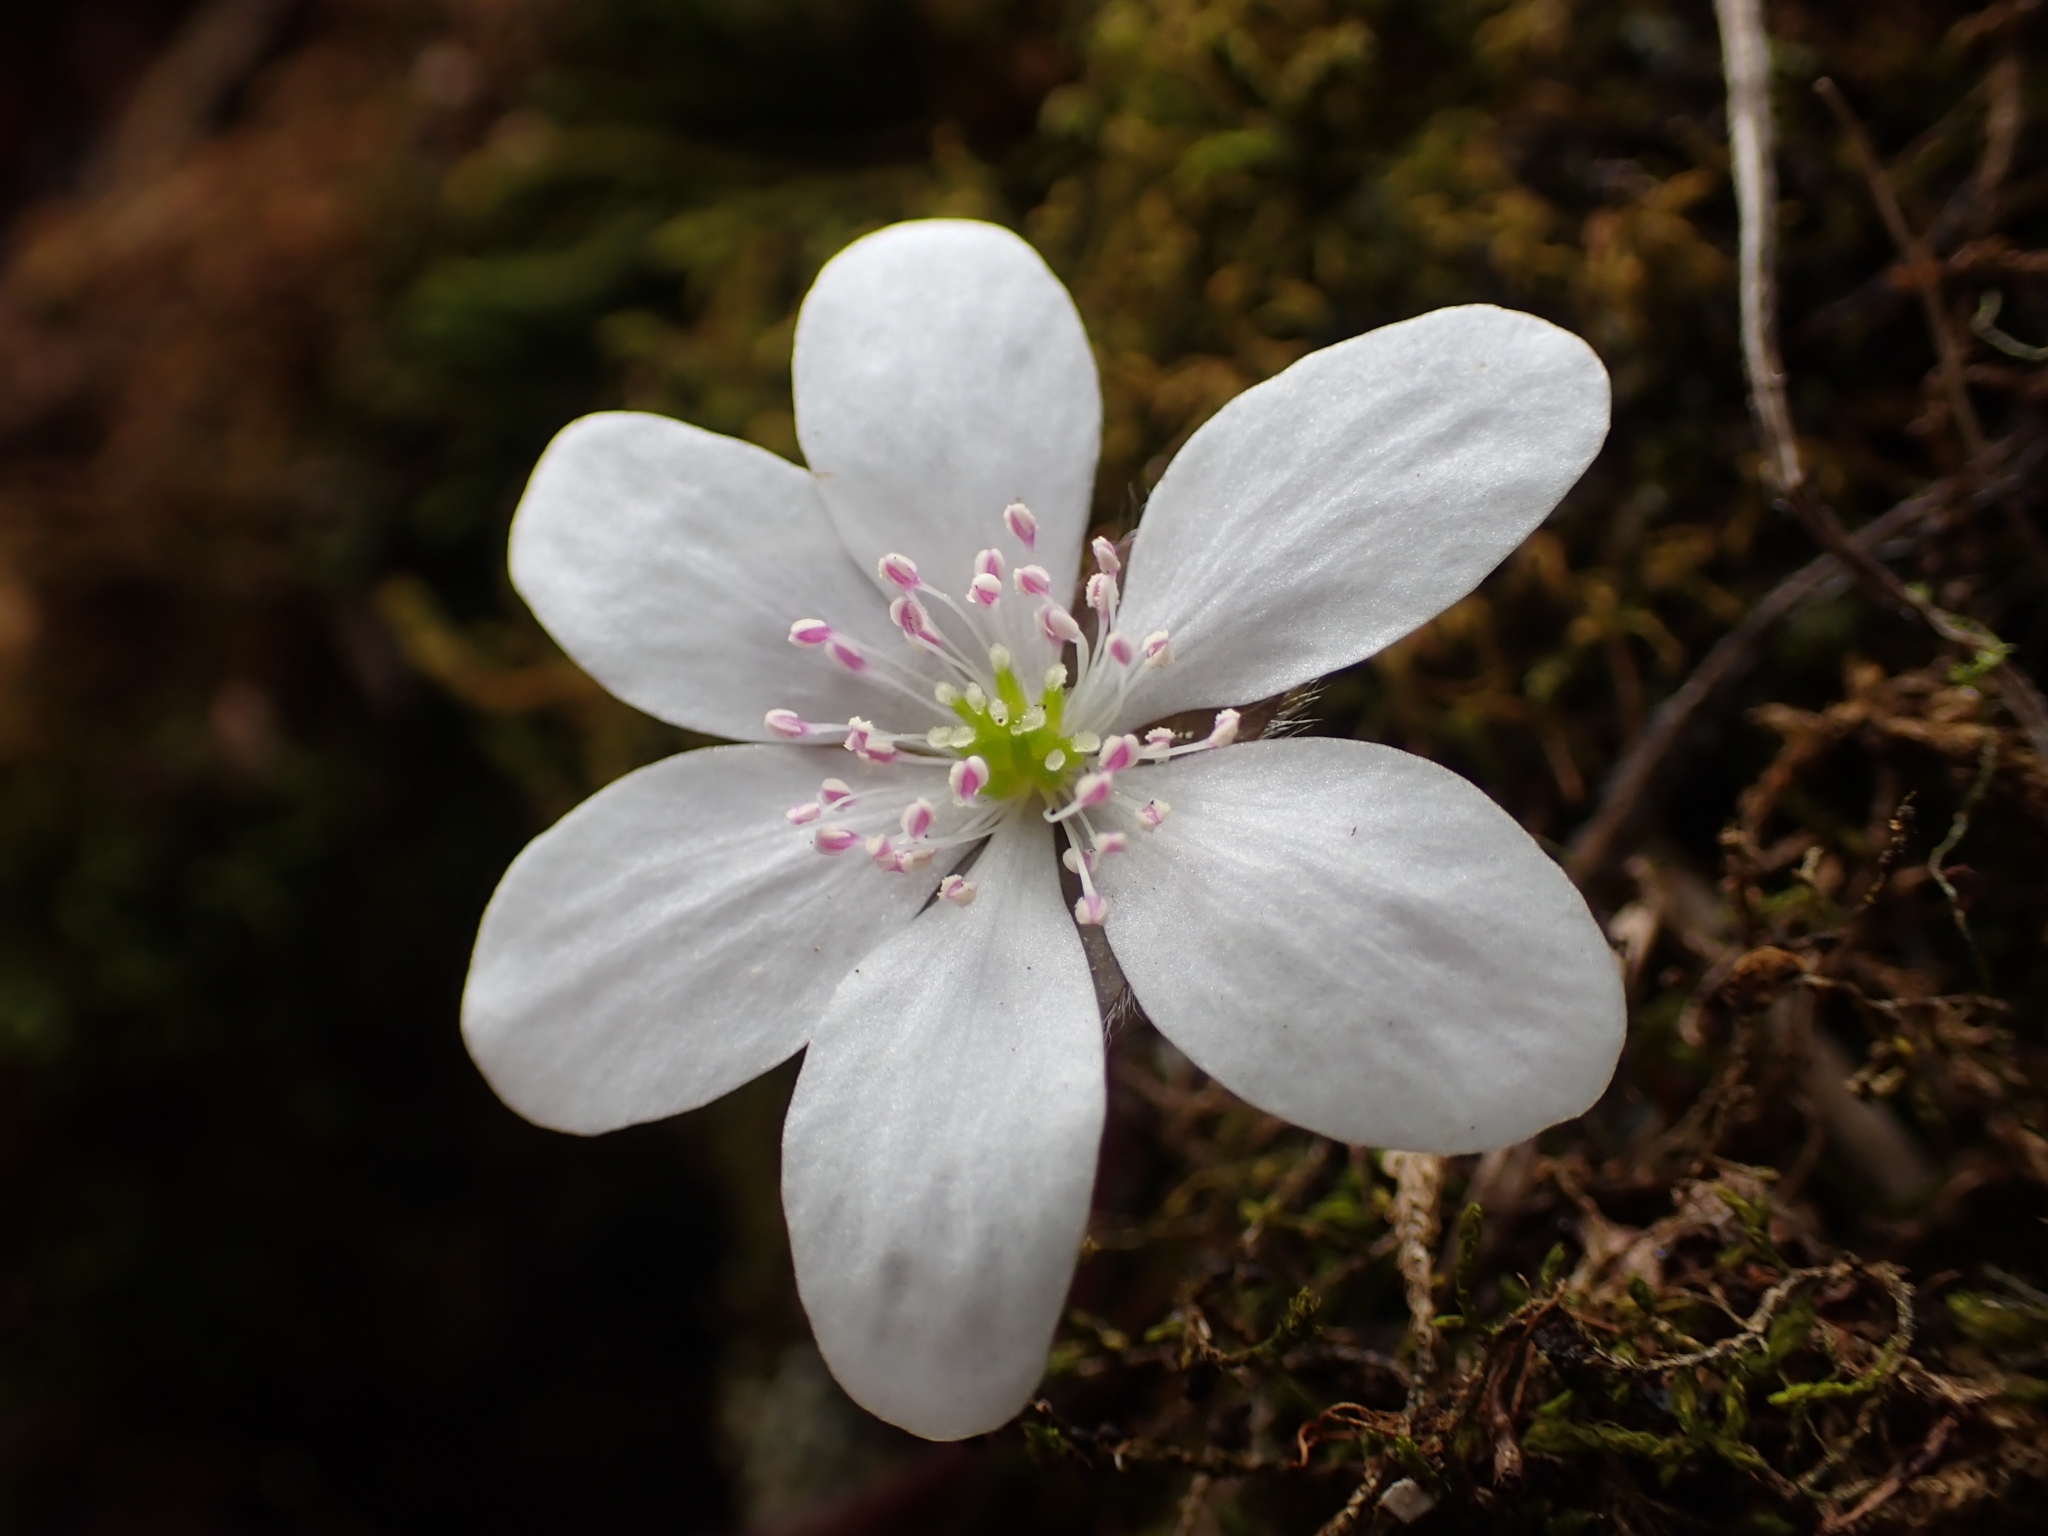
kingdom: Plantae
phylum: Tracheophyta
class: Magnoliopsida
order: Ranunculales
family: Ranunculaceae
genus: Hepatica
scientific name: Hepatica nobilis
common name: Liverleaf
